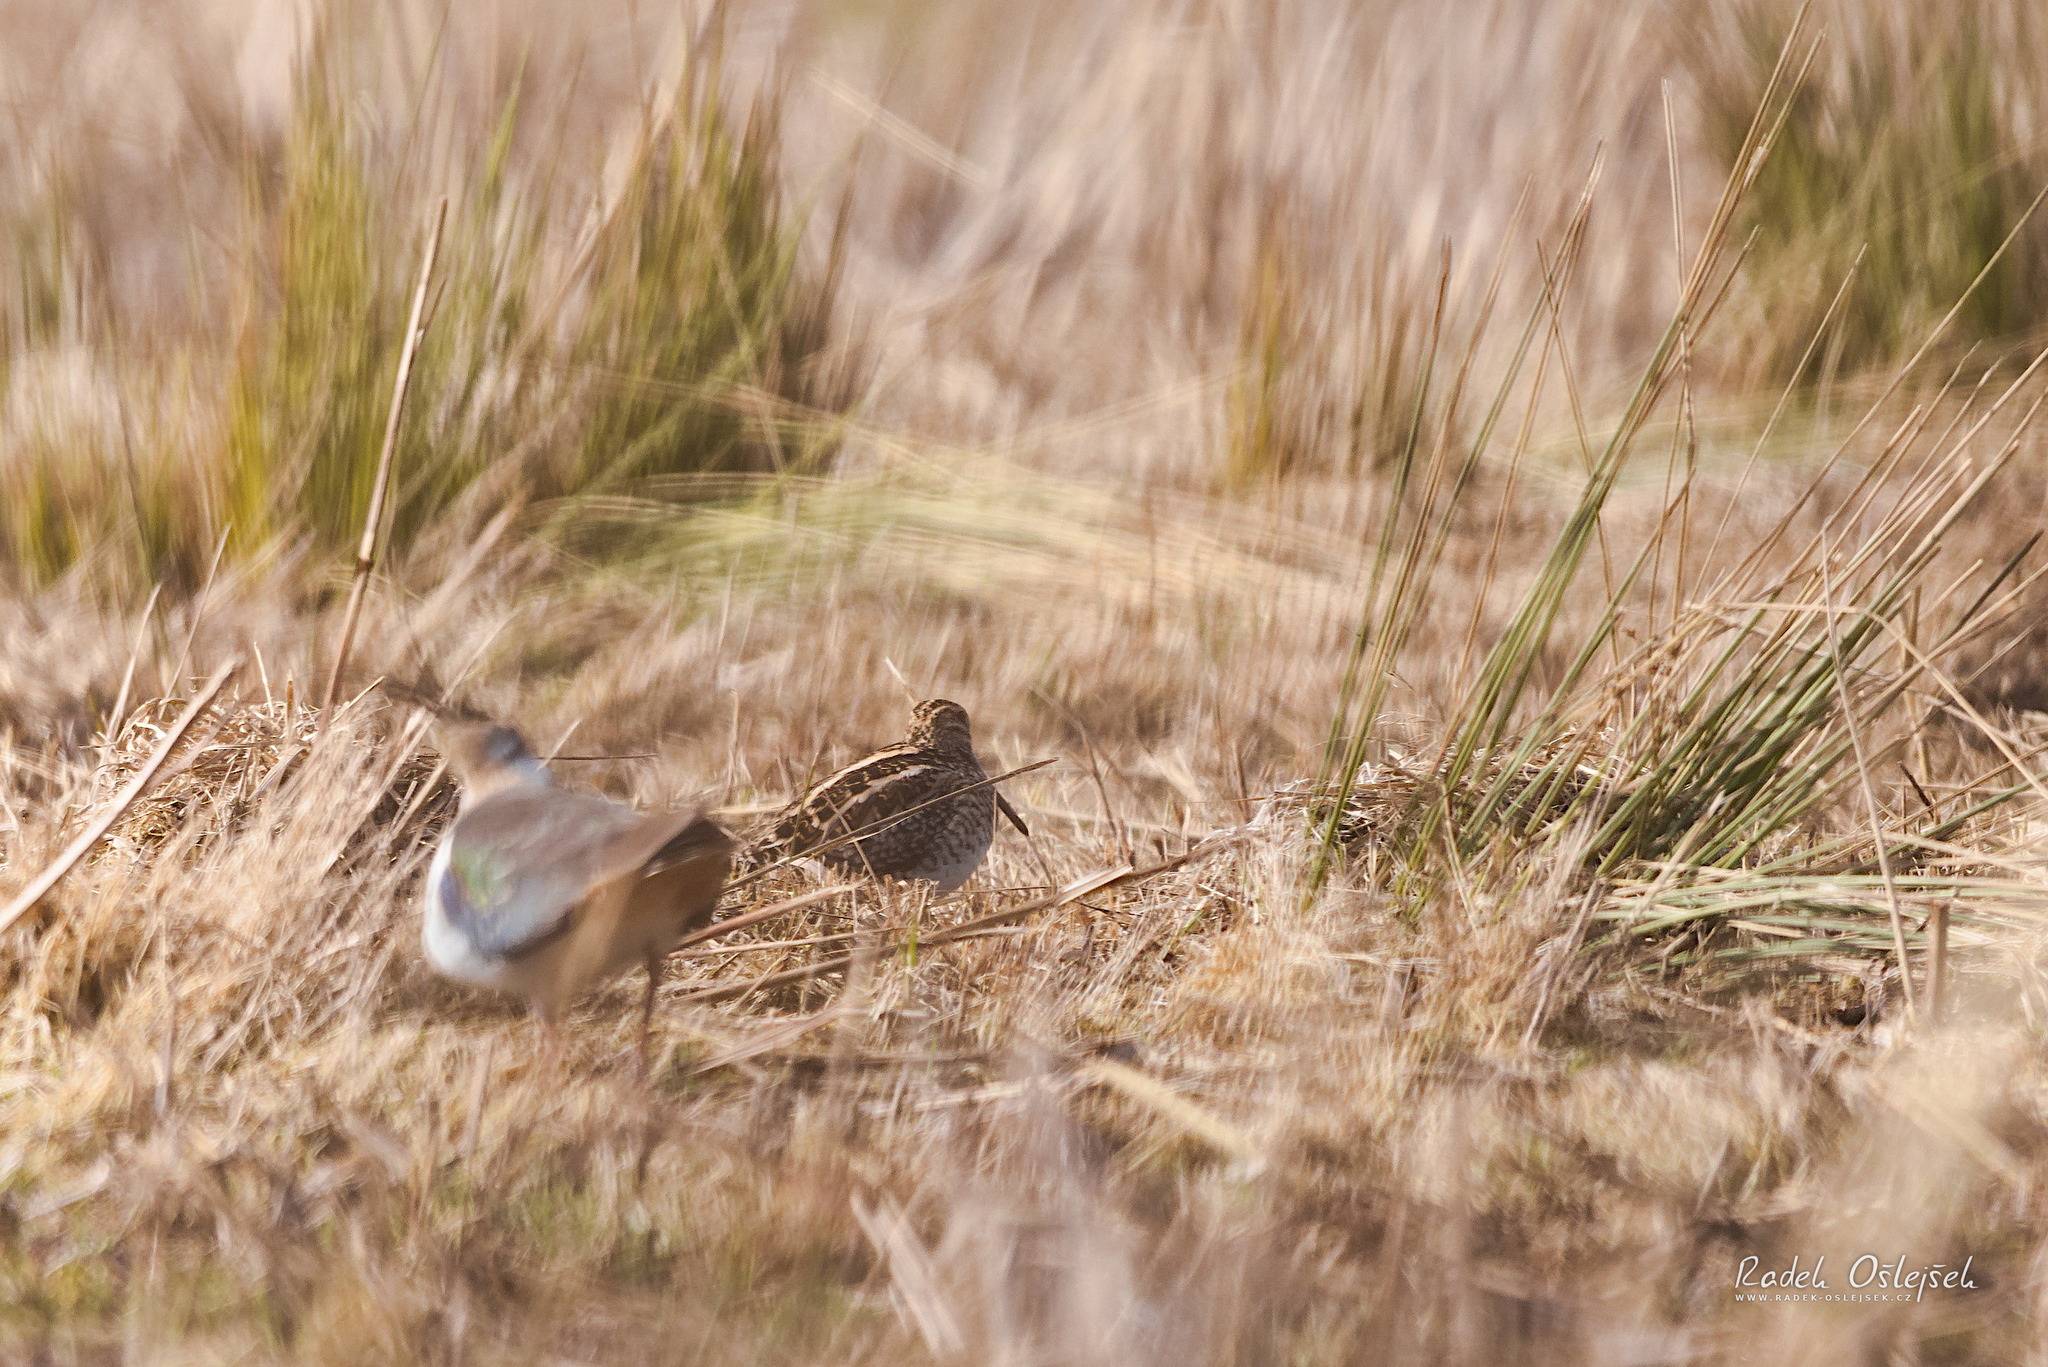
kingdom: Animalia
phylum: Chordata
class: Aves
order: Charadriiformes
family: Scolopacidae
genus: Gallinago
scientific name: Gallinago gallinago
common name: Common snipe
